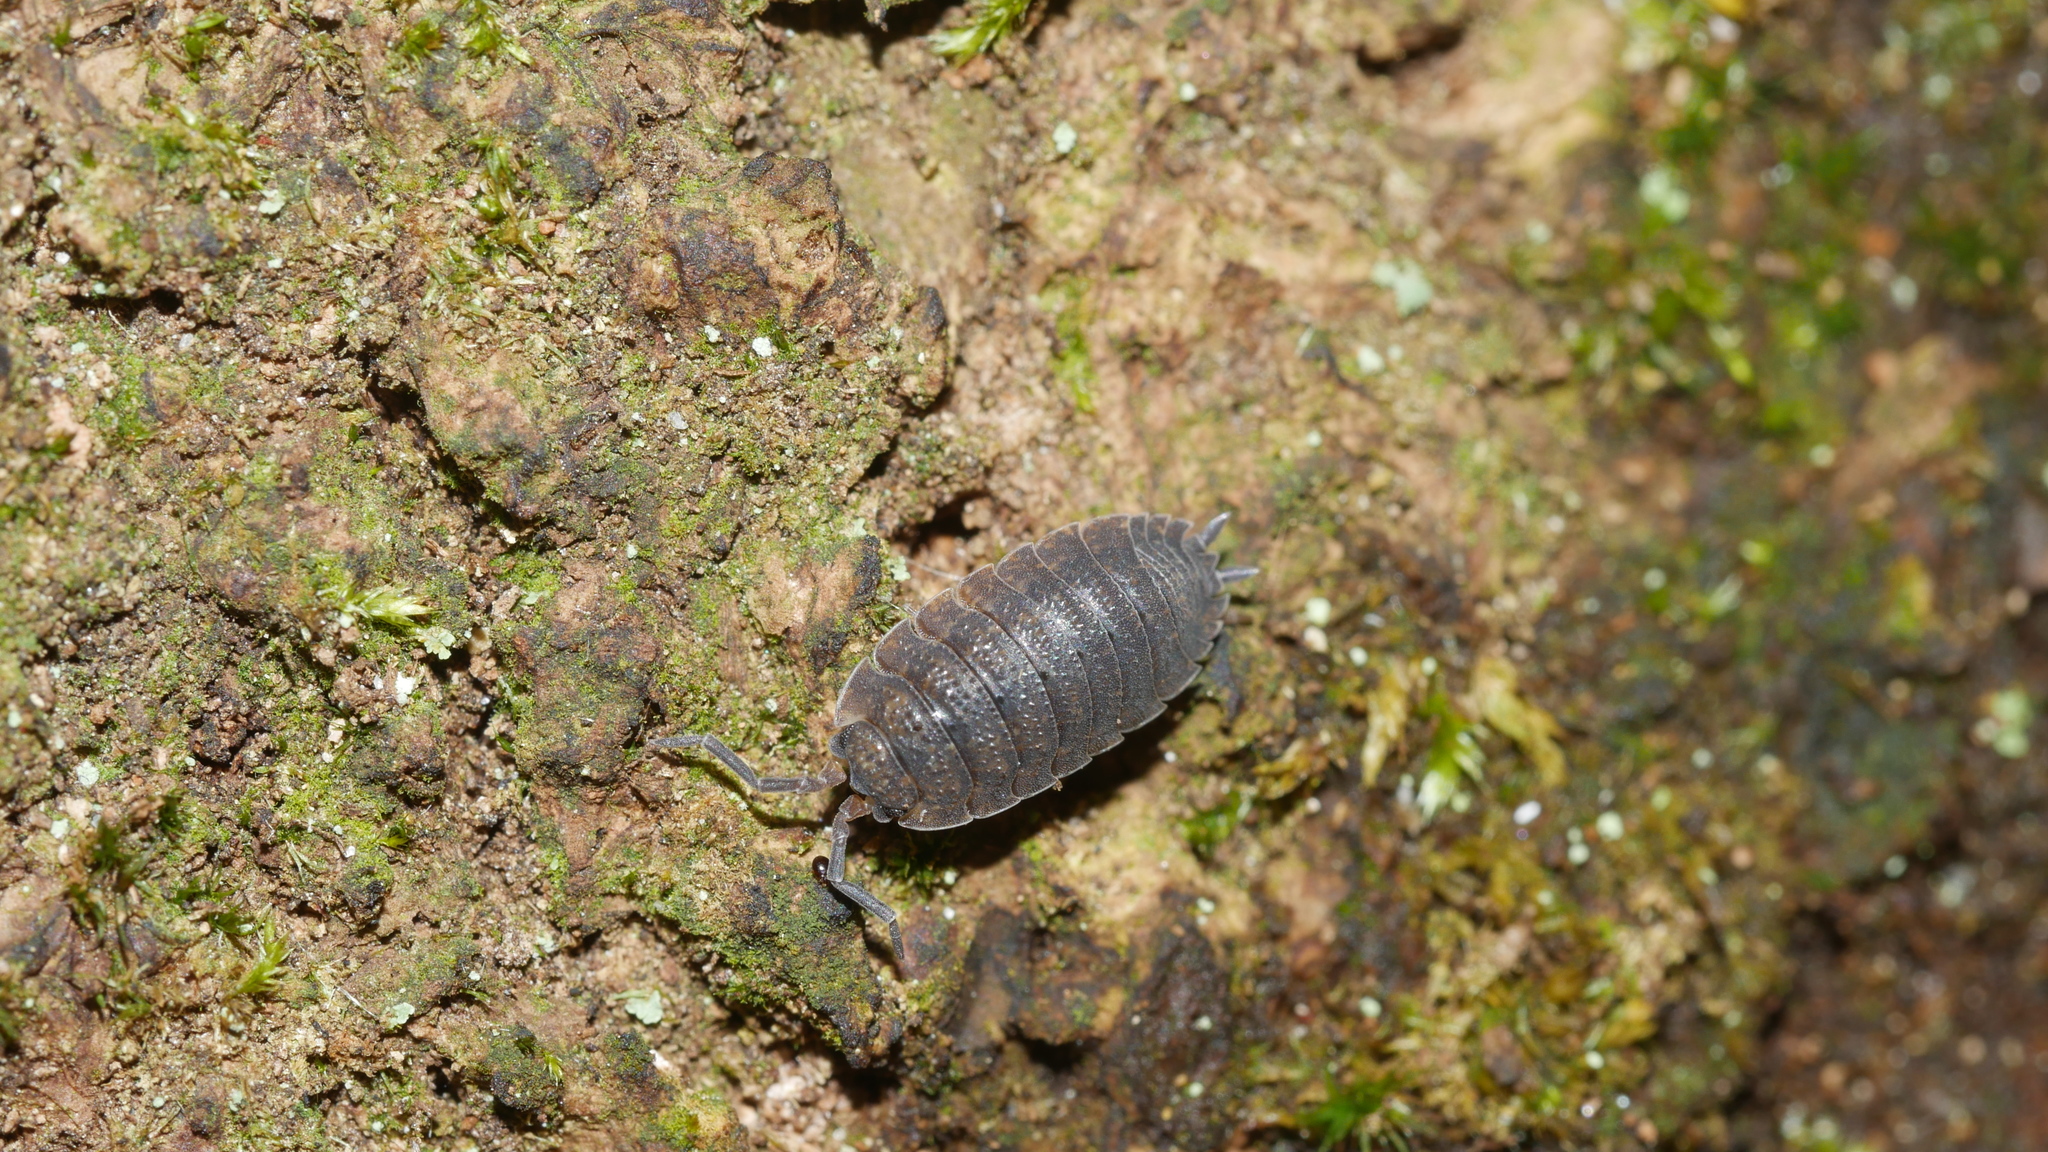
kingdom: Animalia
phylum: Arthropoda
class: Malacostraca
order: Isopoda
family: Porcellionidae
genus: Porcellio
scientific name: Porcellio scaber
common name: Common rough woodlouse
